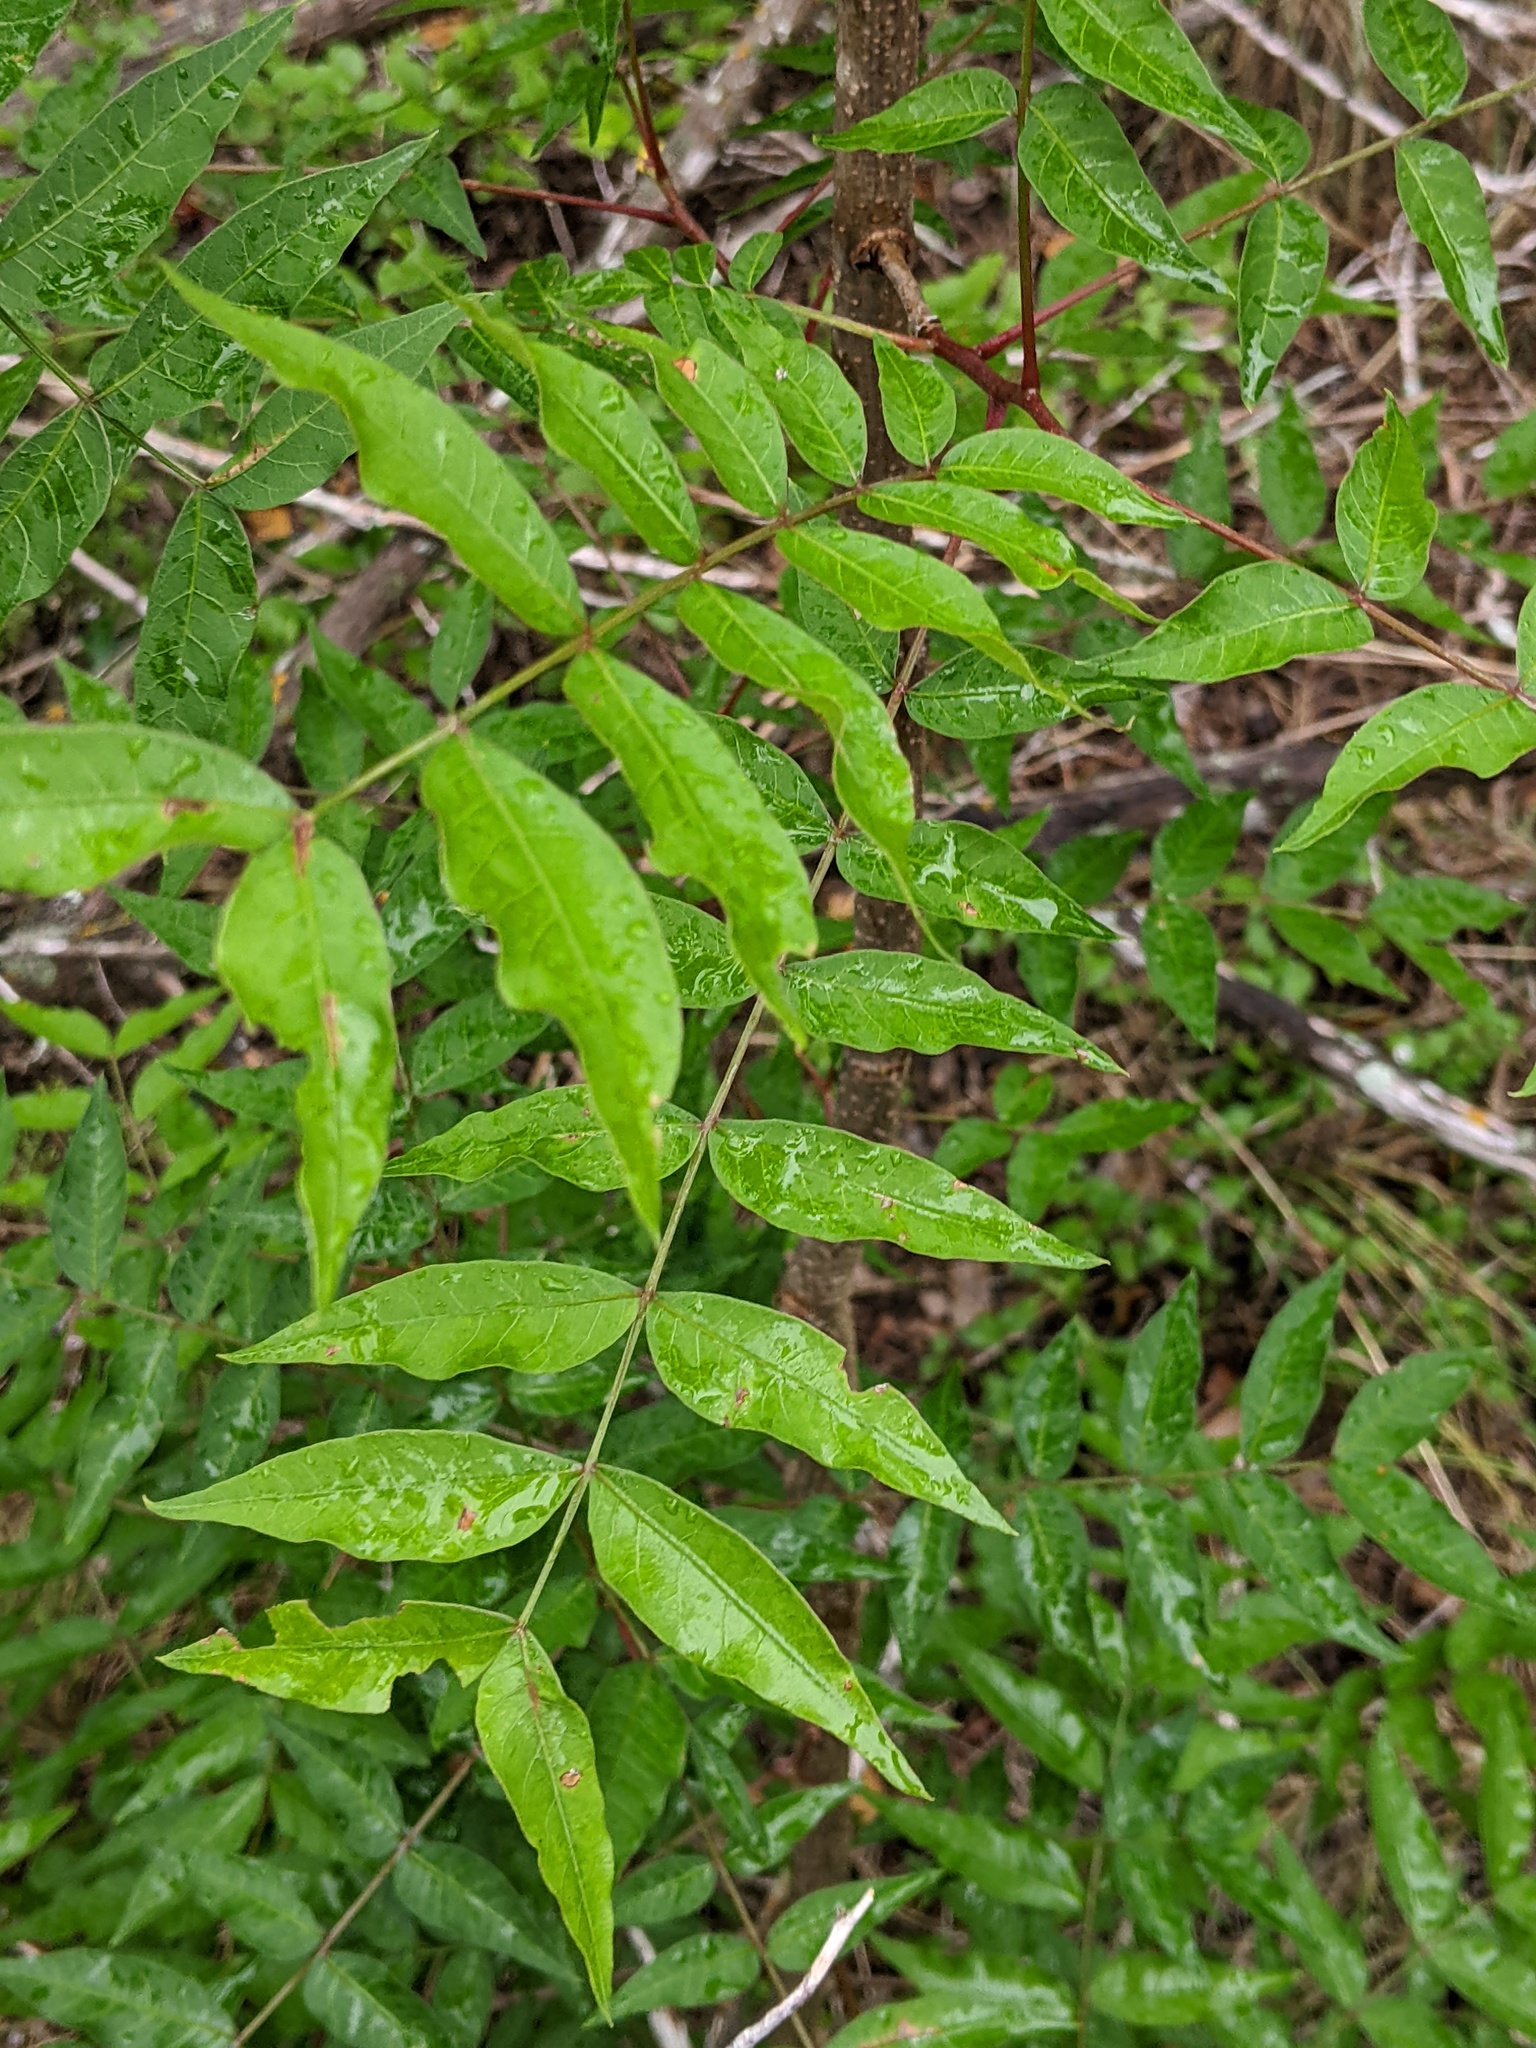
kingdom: Plantae
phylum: Tracheophyta
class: Magnoliopsida
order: Sapindales
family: Anacardiaceae
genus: Pistacia
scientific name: Pistacia chinensis
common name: Chinese pistache
